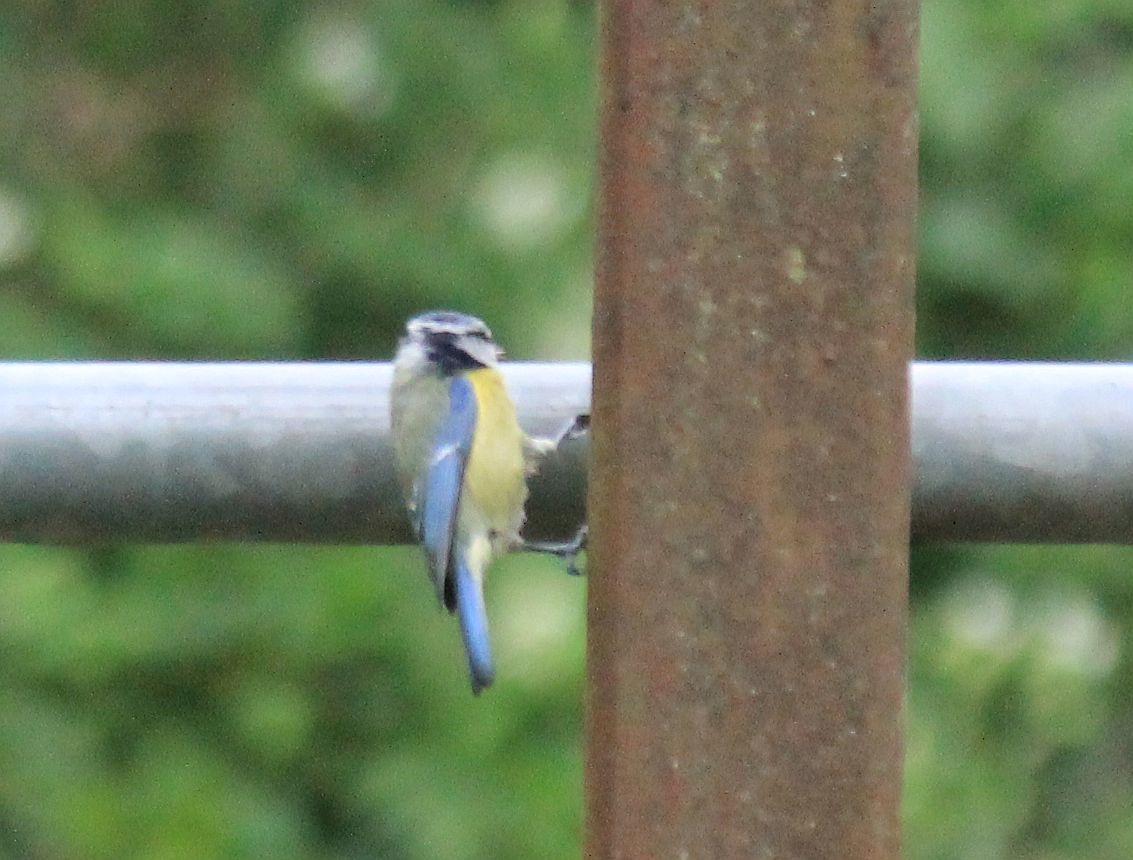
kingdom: Animalia
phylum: Chordata
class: Aves
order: Passeriformes
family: Paridae
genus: Cyanistes
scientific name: Cyanistes caeruleus
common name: Eurasian blue tit
